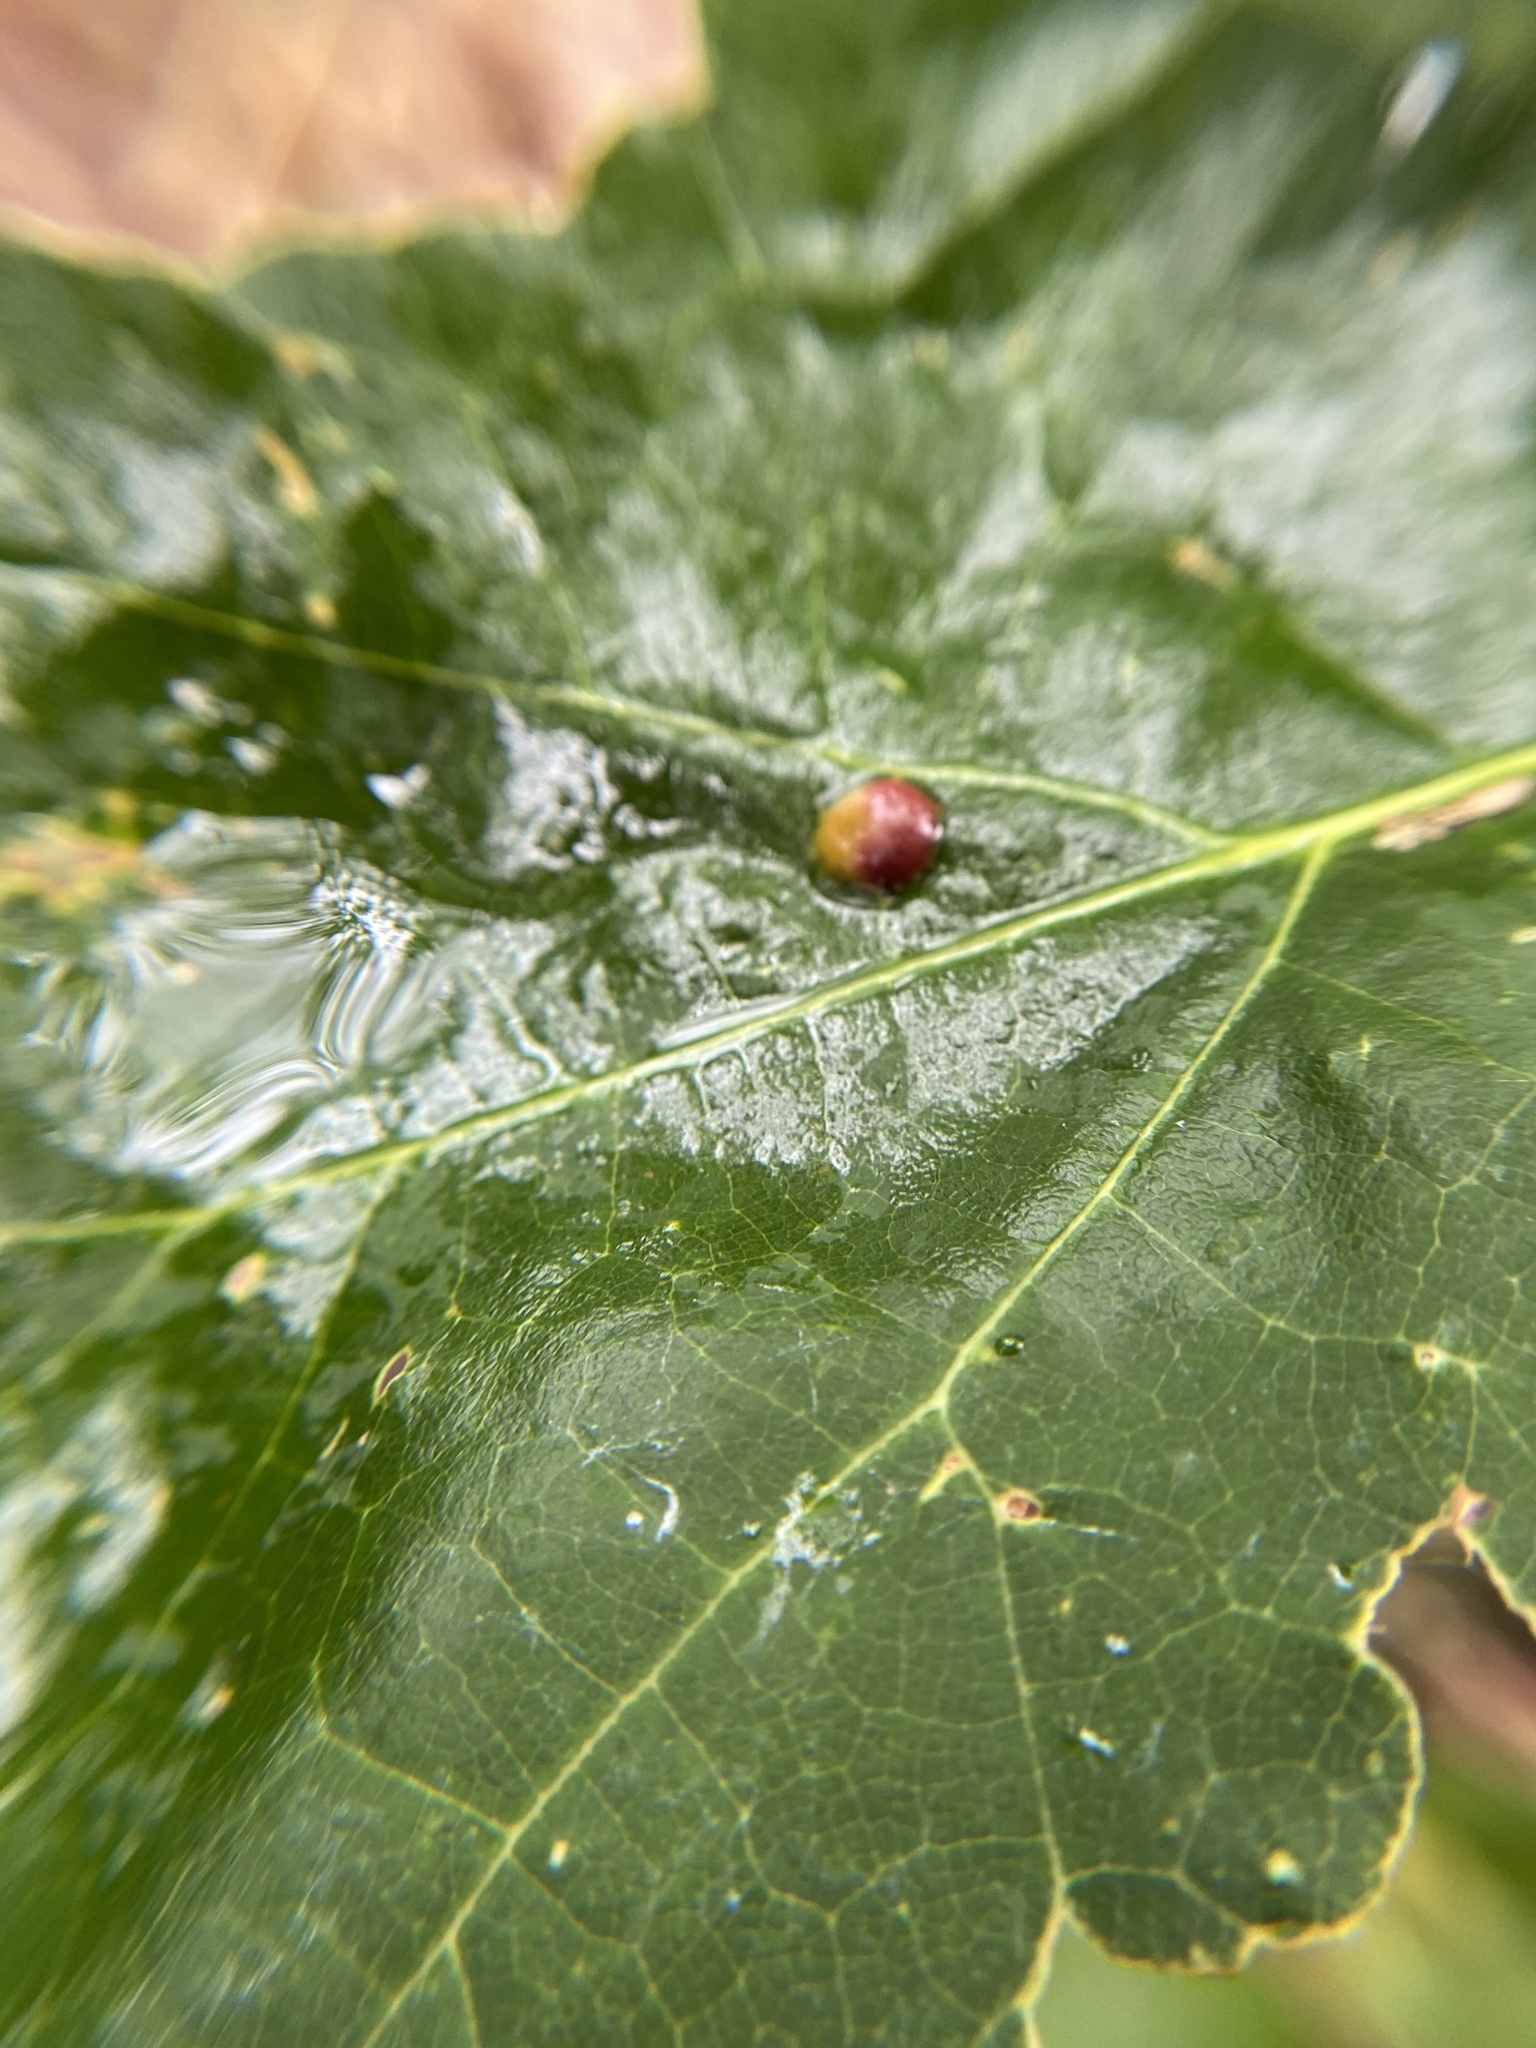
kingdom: Animalia
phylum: Arthropoda
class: Arachnida
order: Trombidiformes
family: Eriophyidae
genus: Vasates
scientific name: Vasates quadripedes
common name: Maple bladder gall mite
